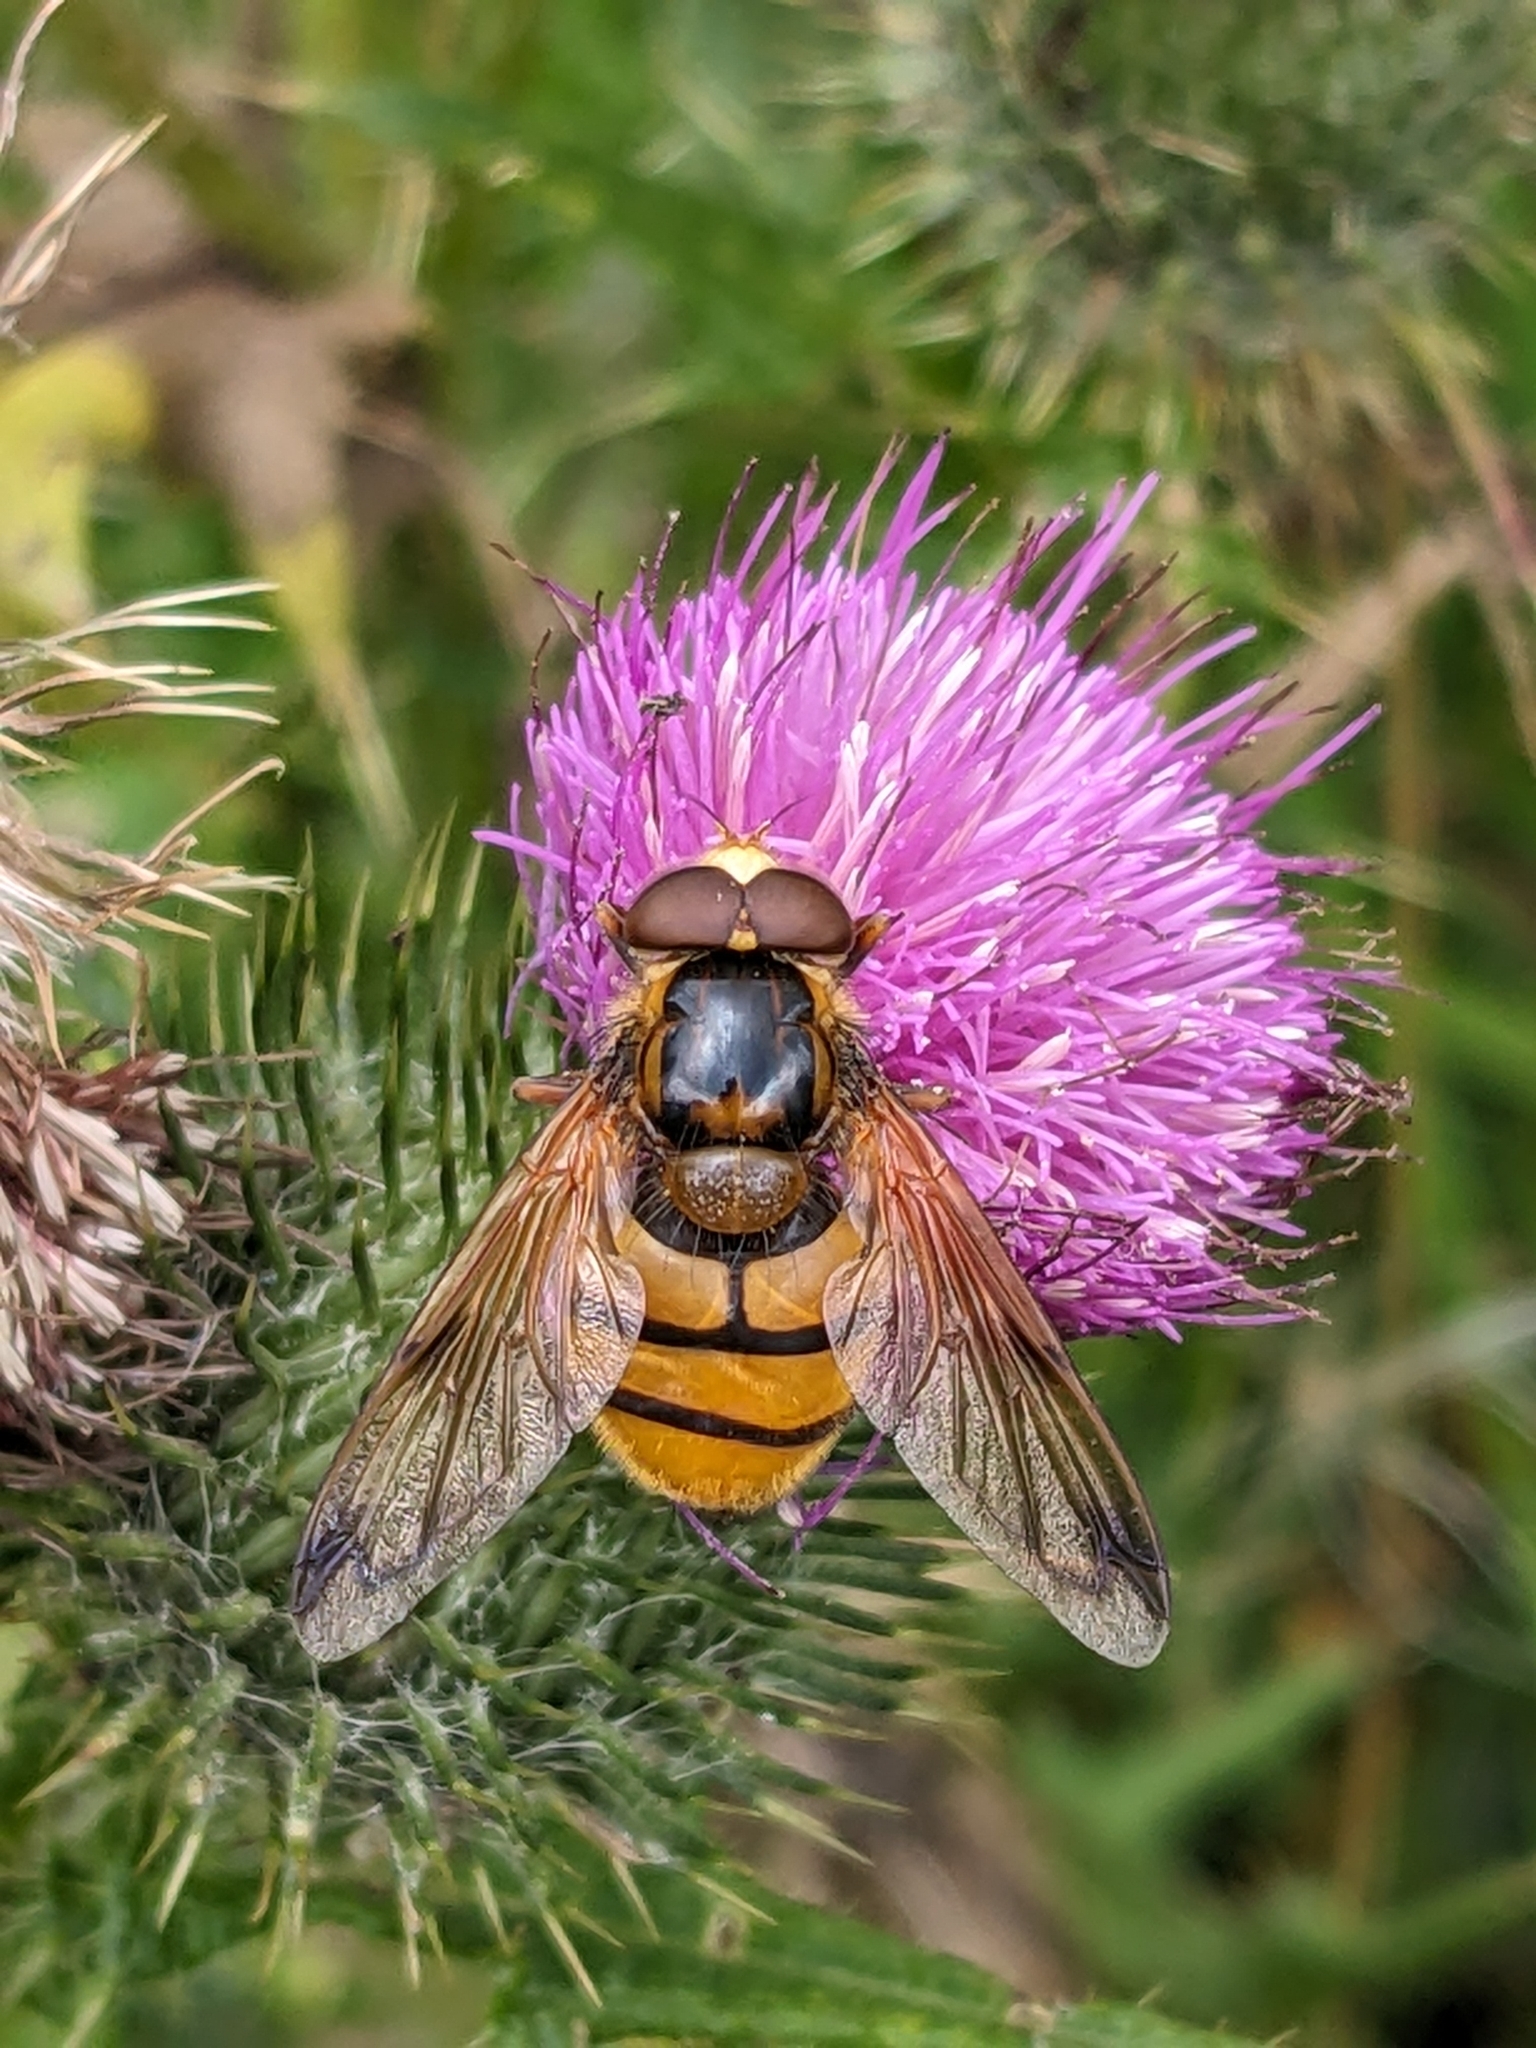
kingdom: Animalia
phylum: Arthropoda
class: Insecta
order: Diptera
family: Syrphidae
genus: Volucella
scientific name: Volucella inanis
